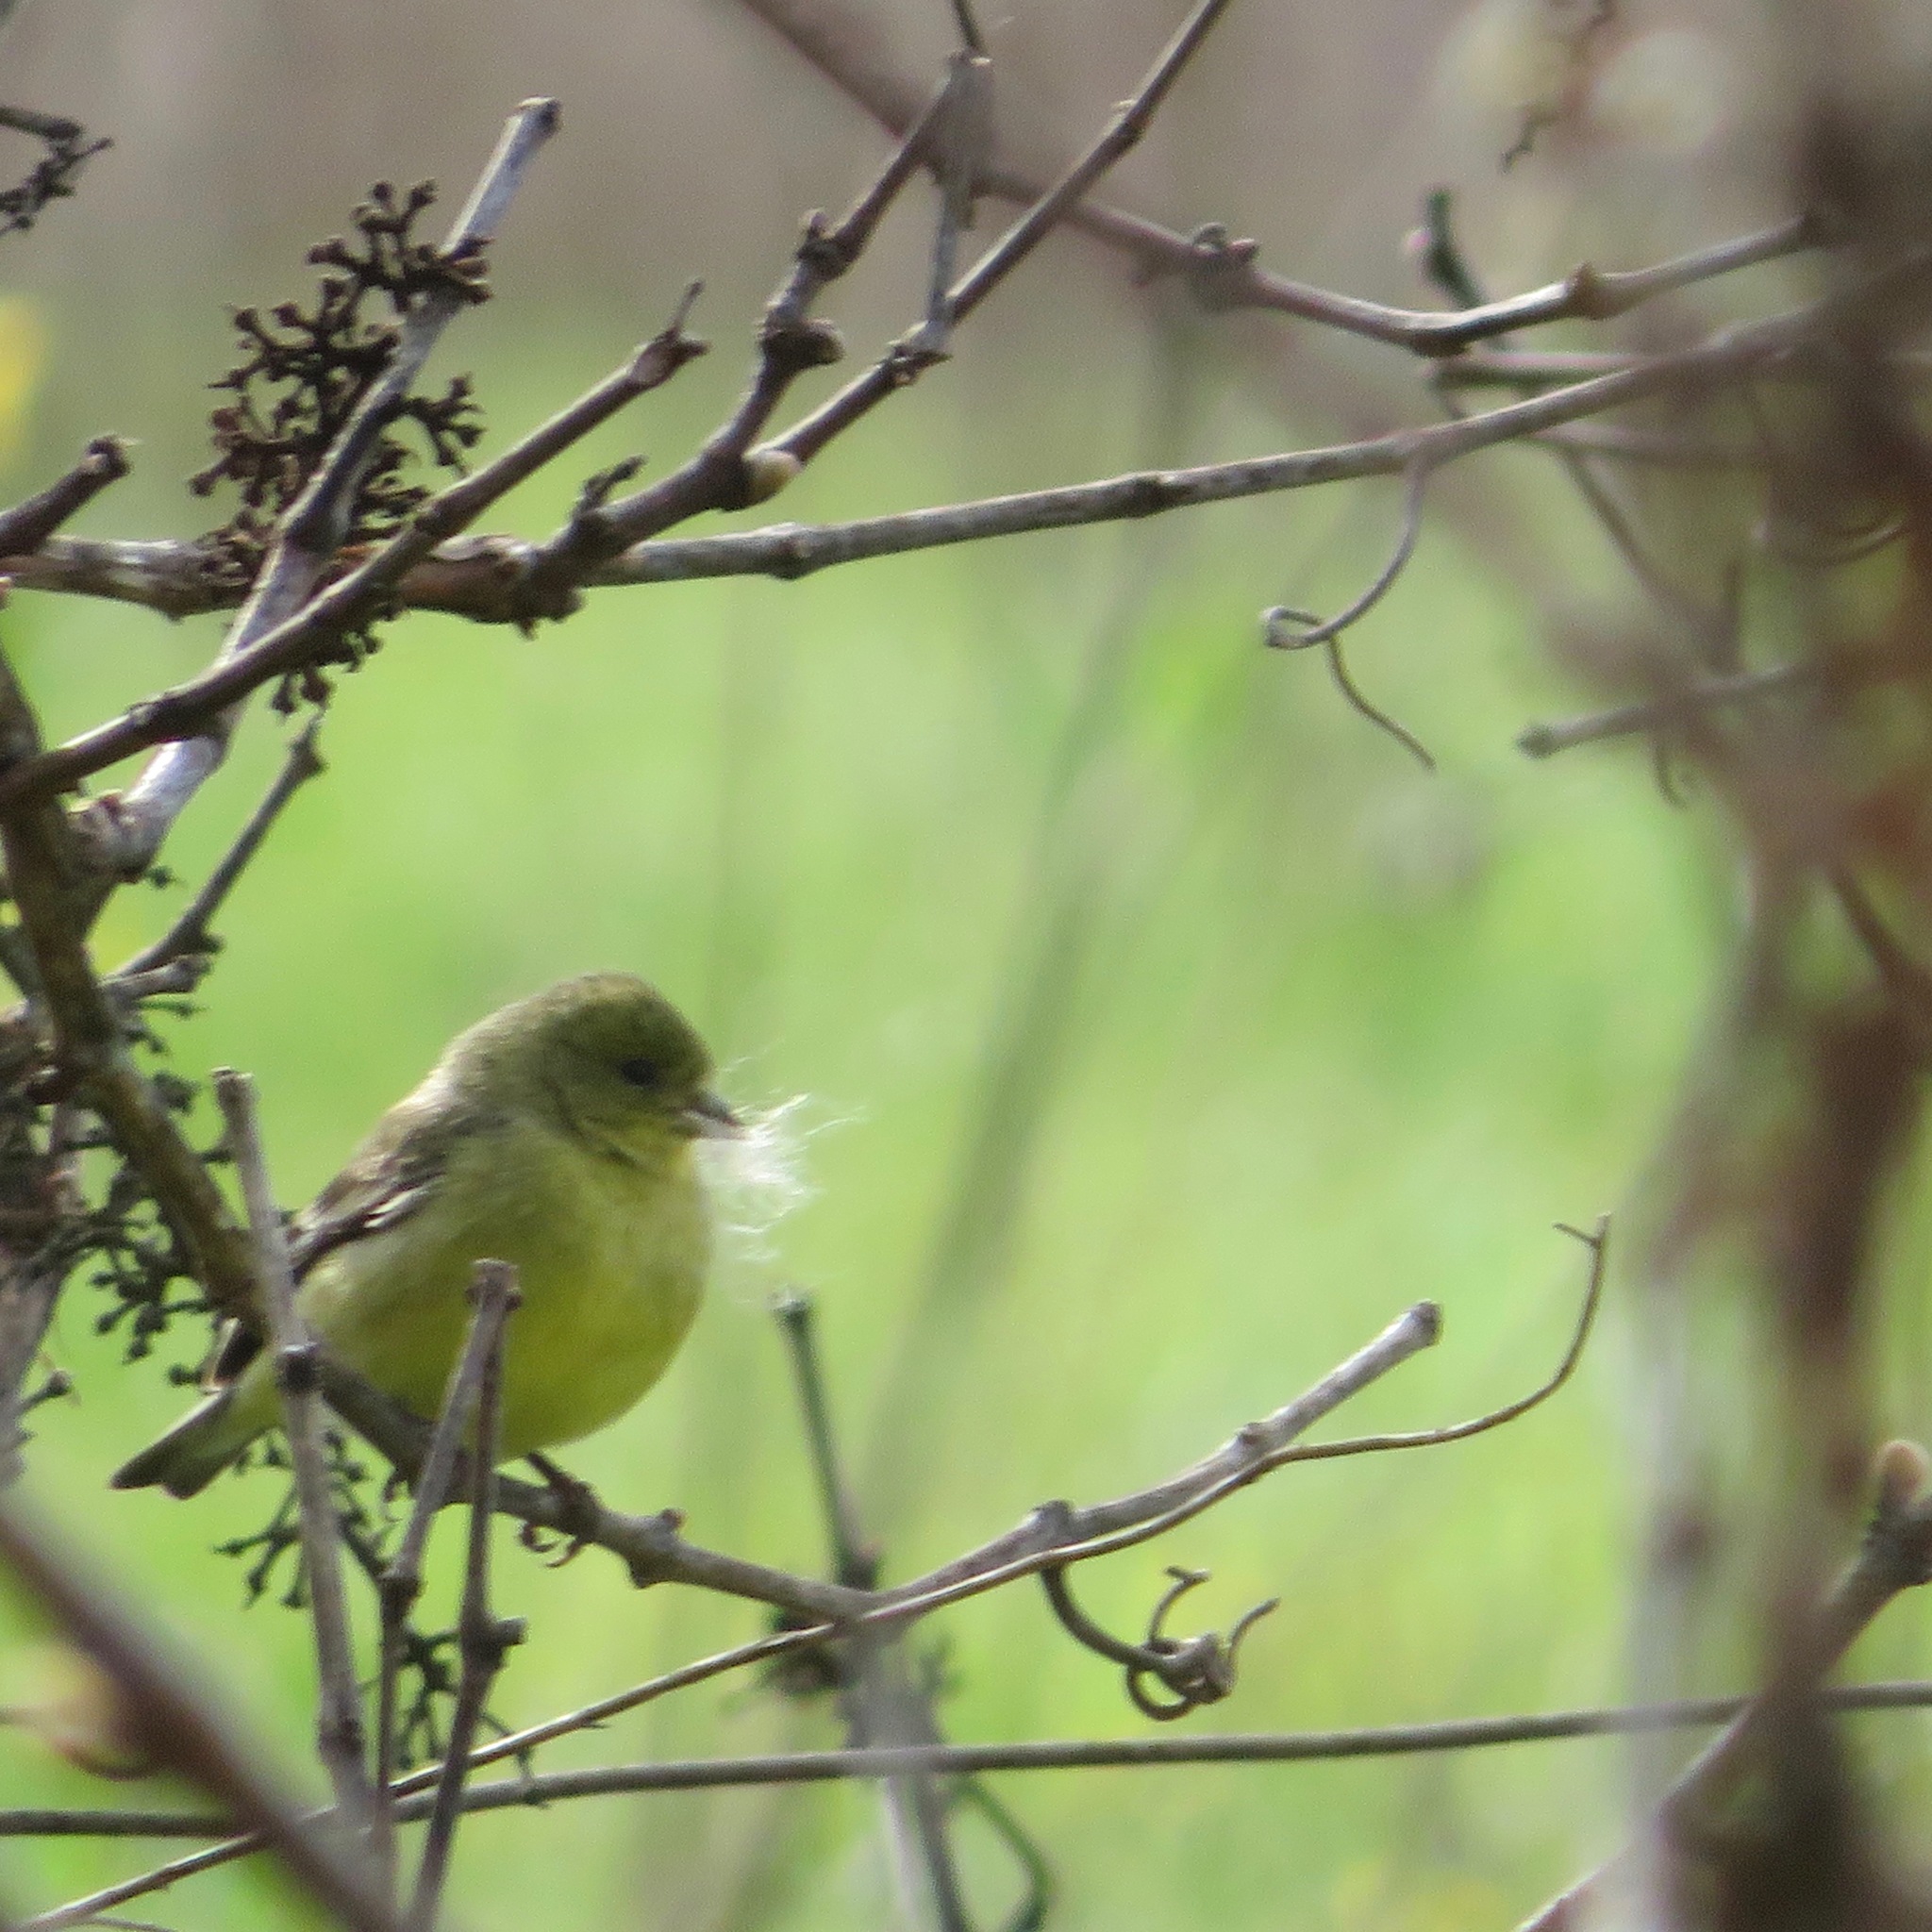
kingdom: Animalia
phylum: Chordata
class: Aves
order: Passeriformes
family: Fringillidae
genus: Spinus
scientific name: Spinus psaltria
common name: Lesser goldfinch
